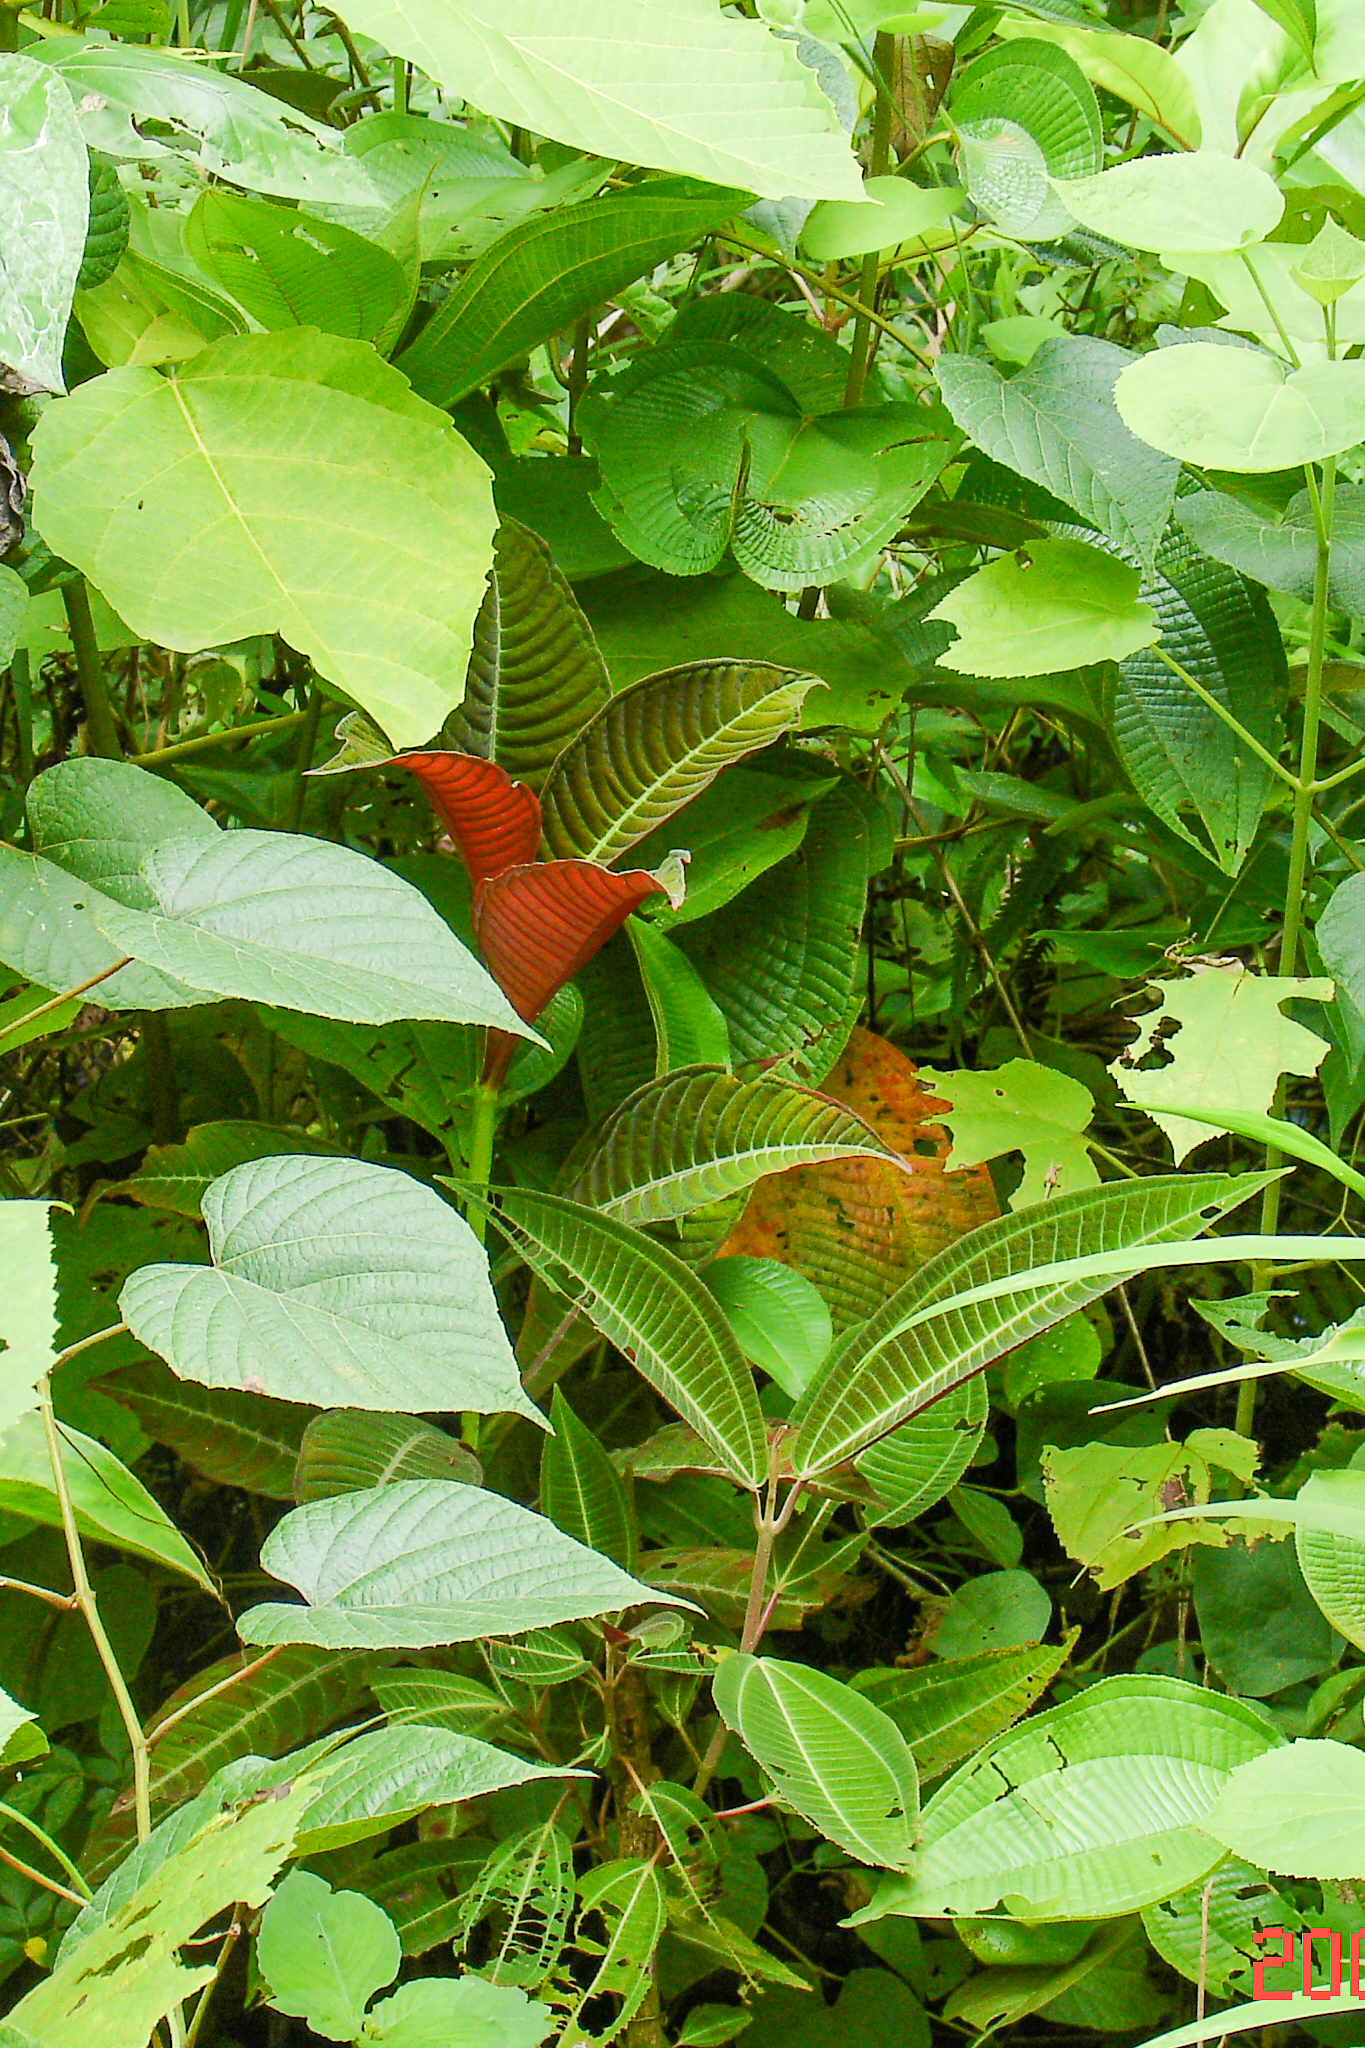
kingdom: Plantae
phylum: Tracheophyta
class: Magnoliopsida
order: Myrtales
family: Melastomataceae
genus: Miconia
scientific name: Miconia calvescens
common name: Purple plague
